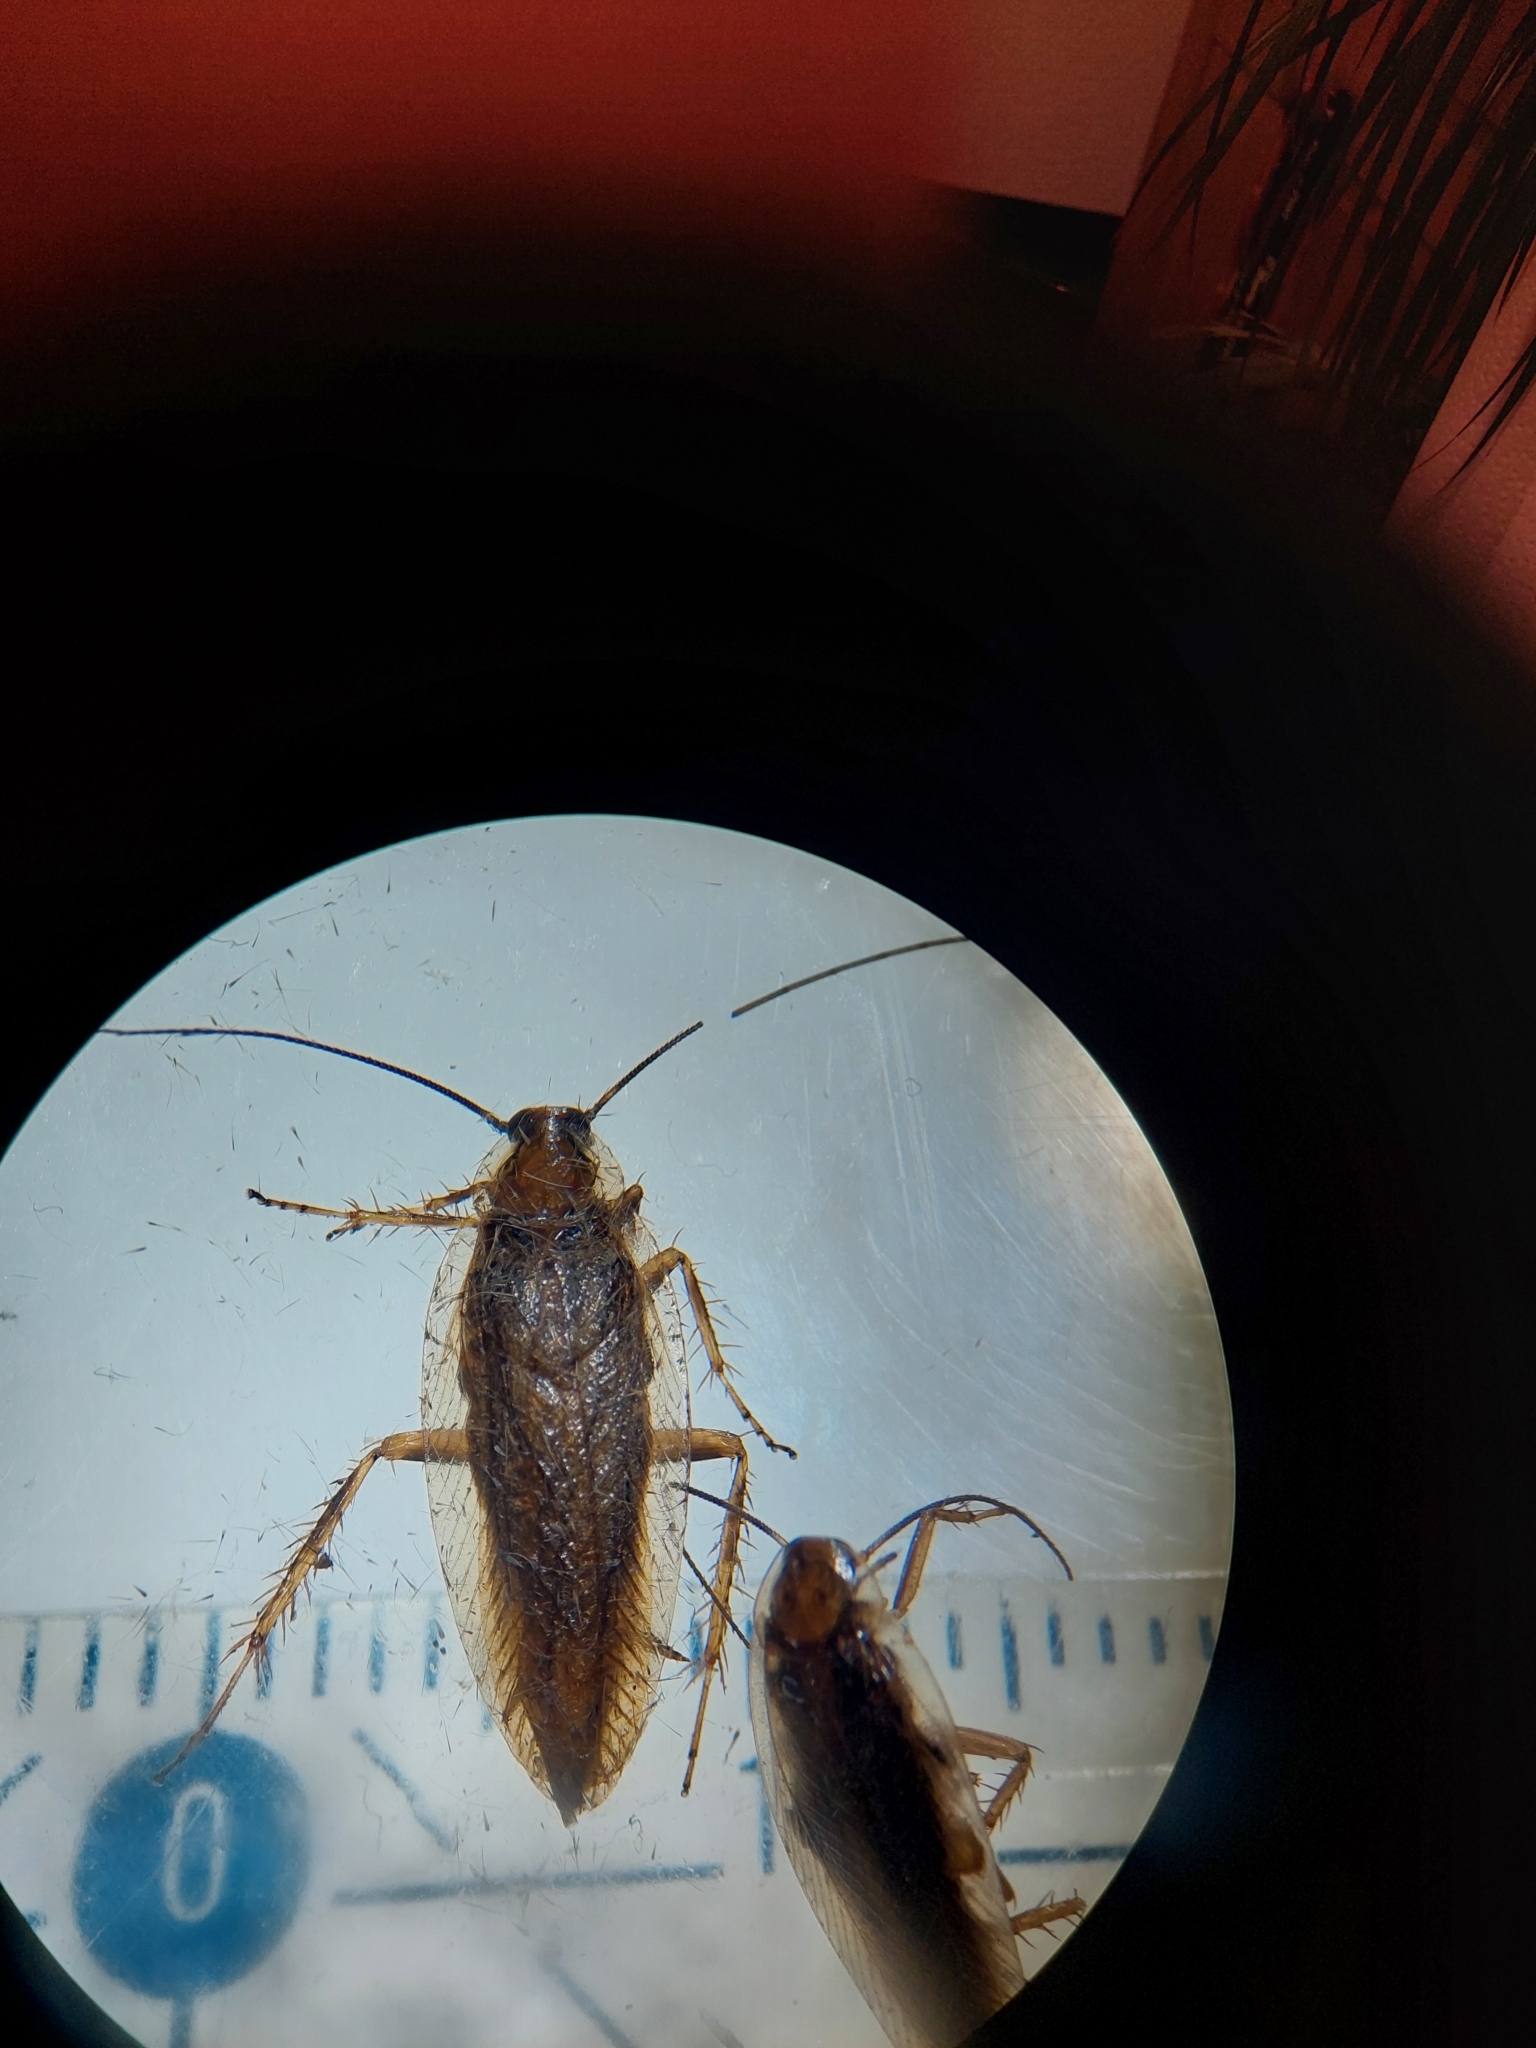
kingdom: Animalia
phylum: Arthropoda
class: Insecta
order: Blattodea
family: Ectobiidae
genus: Ectobius
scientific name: Ectobius vittiventris
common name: Garden cockroach
